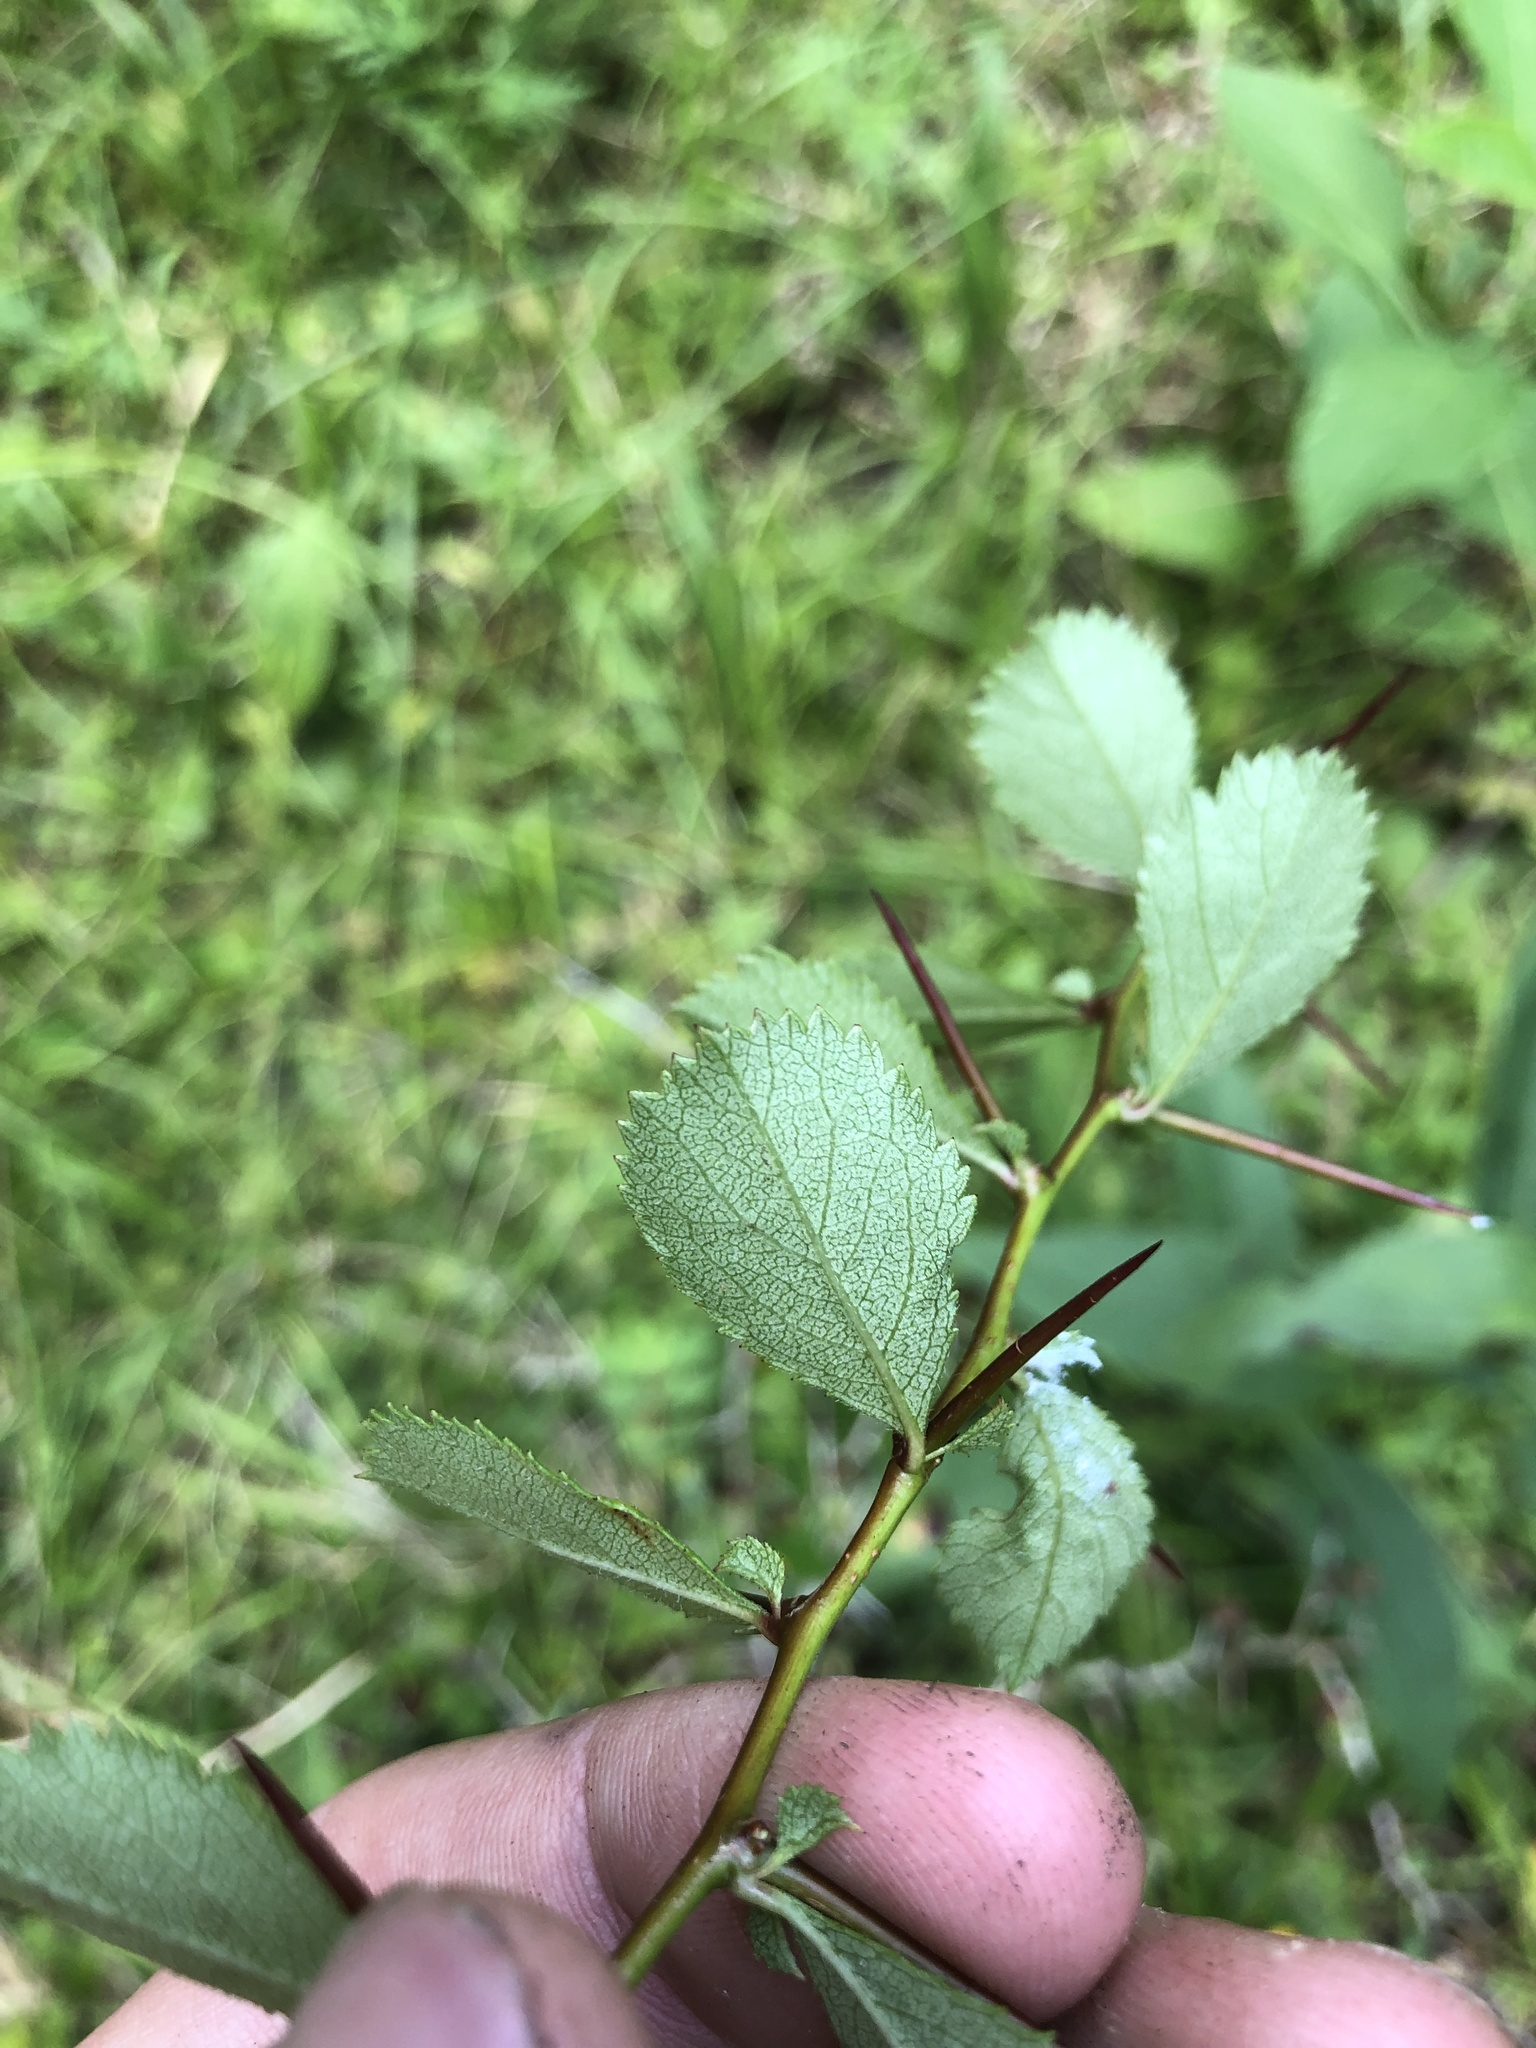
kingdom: Plantae
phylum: Tracheophyta
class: Magnoliopsida
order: Rosales
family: Rosaceae
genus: Crataegus
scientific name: Crataegus berberifolia
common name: Barberry hawthorn
